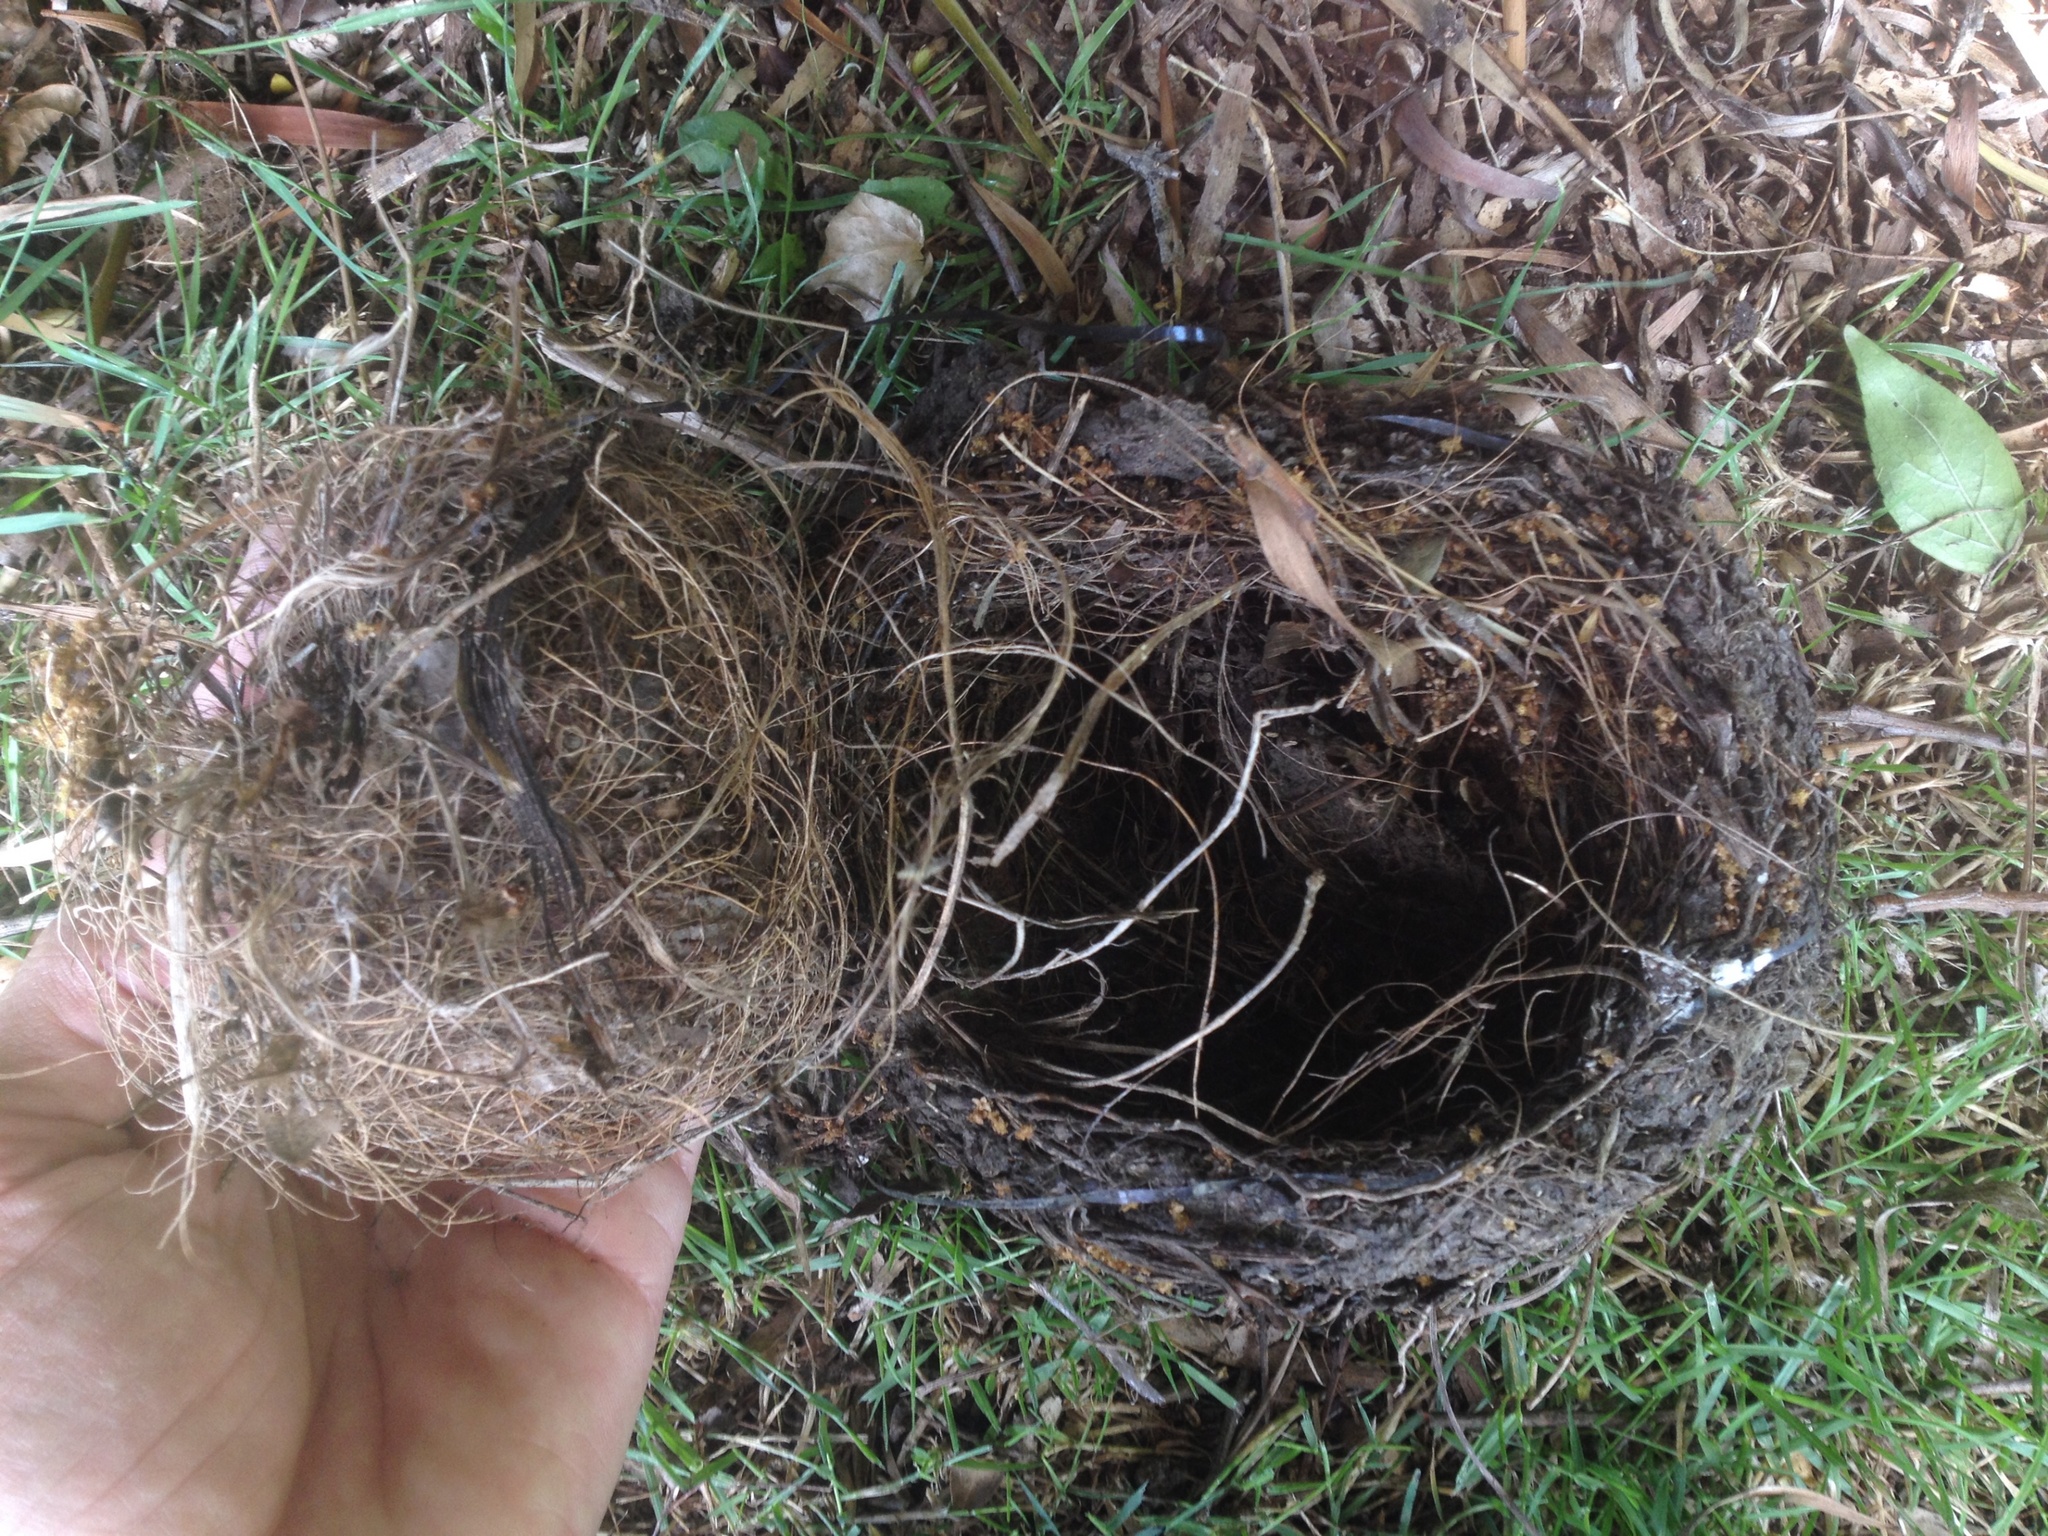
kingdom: Animalia
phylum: Chordata
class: Aves
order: Passeriformes
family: Turdidae
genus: Turdus
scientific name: Turdus merula
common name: Common blackbird
